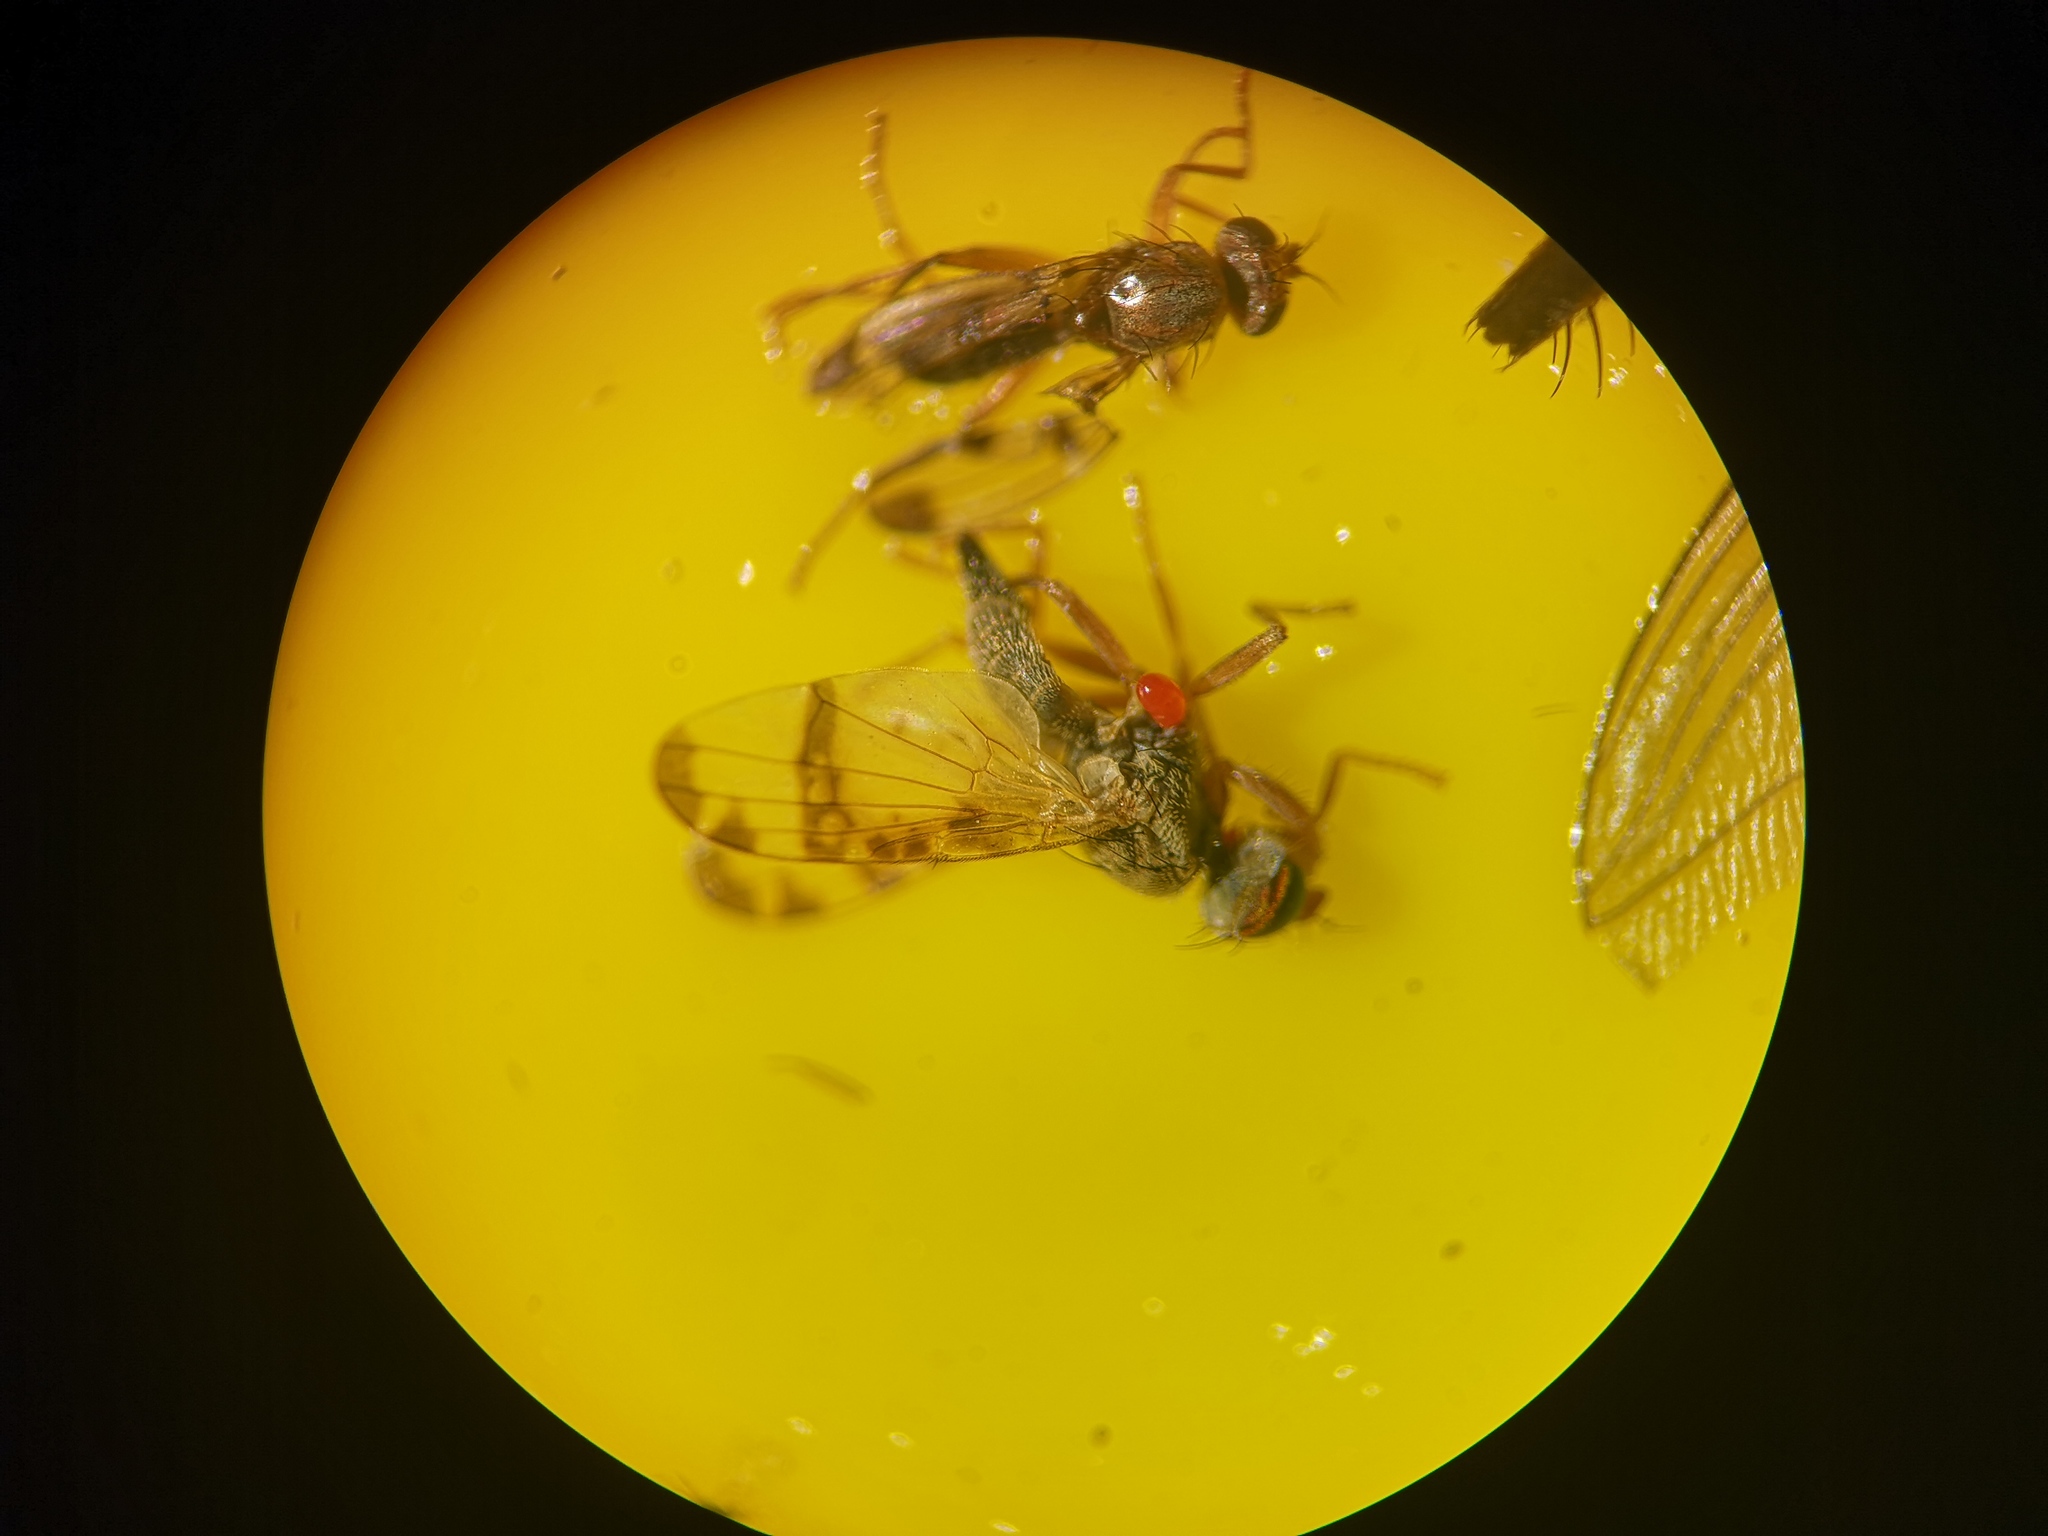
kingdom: Animalia
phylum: Arthropoda
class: Insecta
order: Diptera
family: Tephritidae
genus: Sphenella
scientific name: Sphenella marginata
